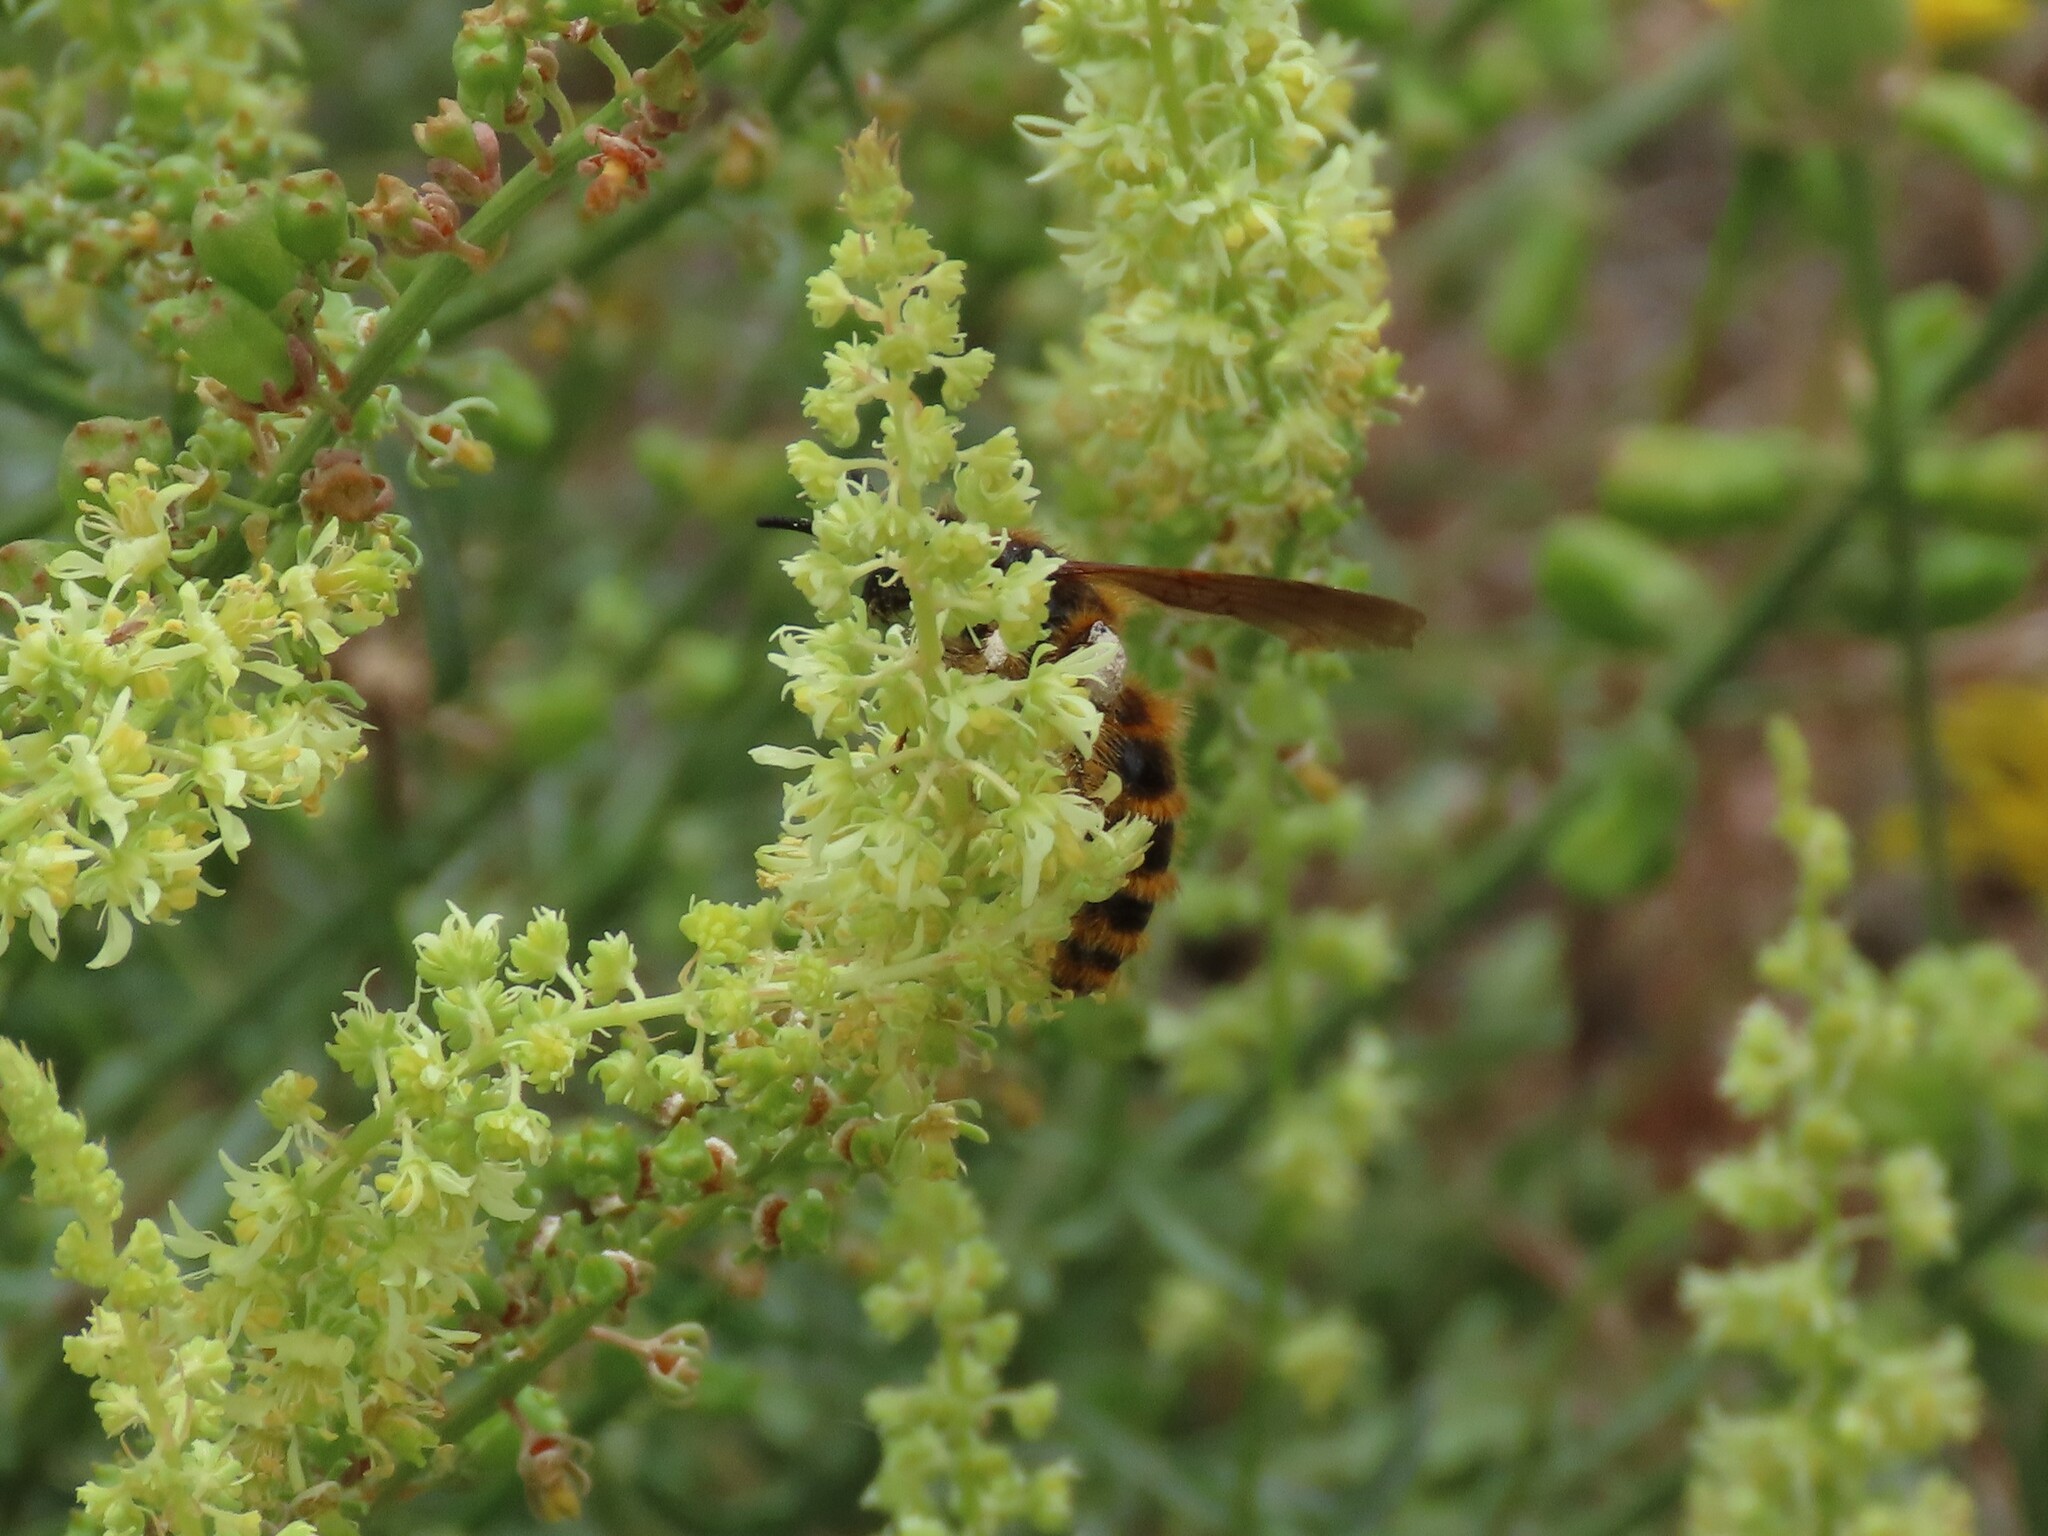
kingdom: Animalia
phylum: Arthropoda
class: Insecta
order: Hymenoptera
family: Scoliidae
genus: Dasyscolia
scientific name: Dasyscolia ciliata
